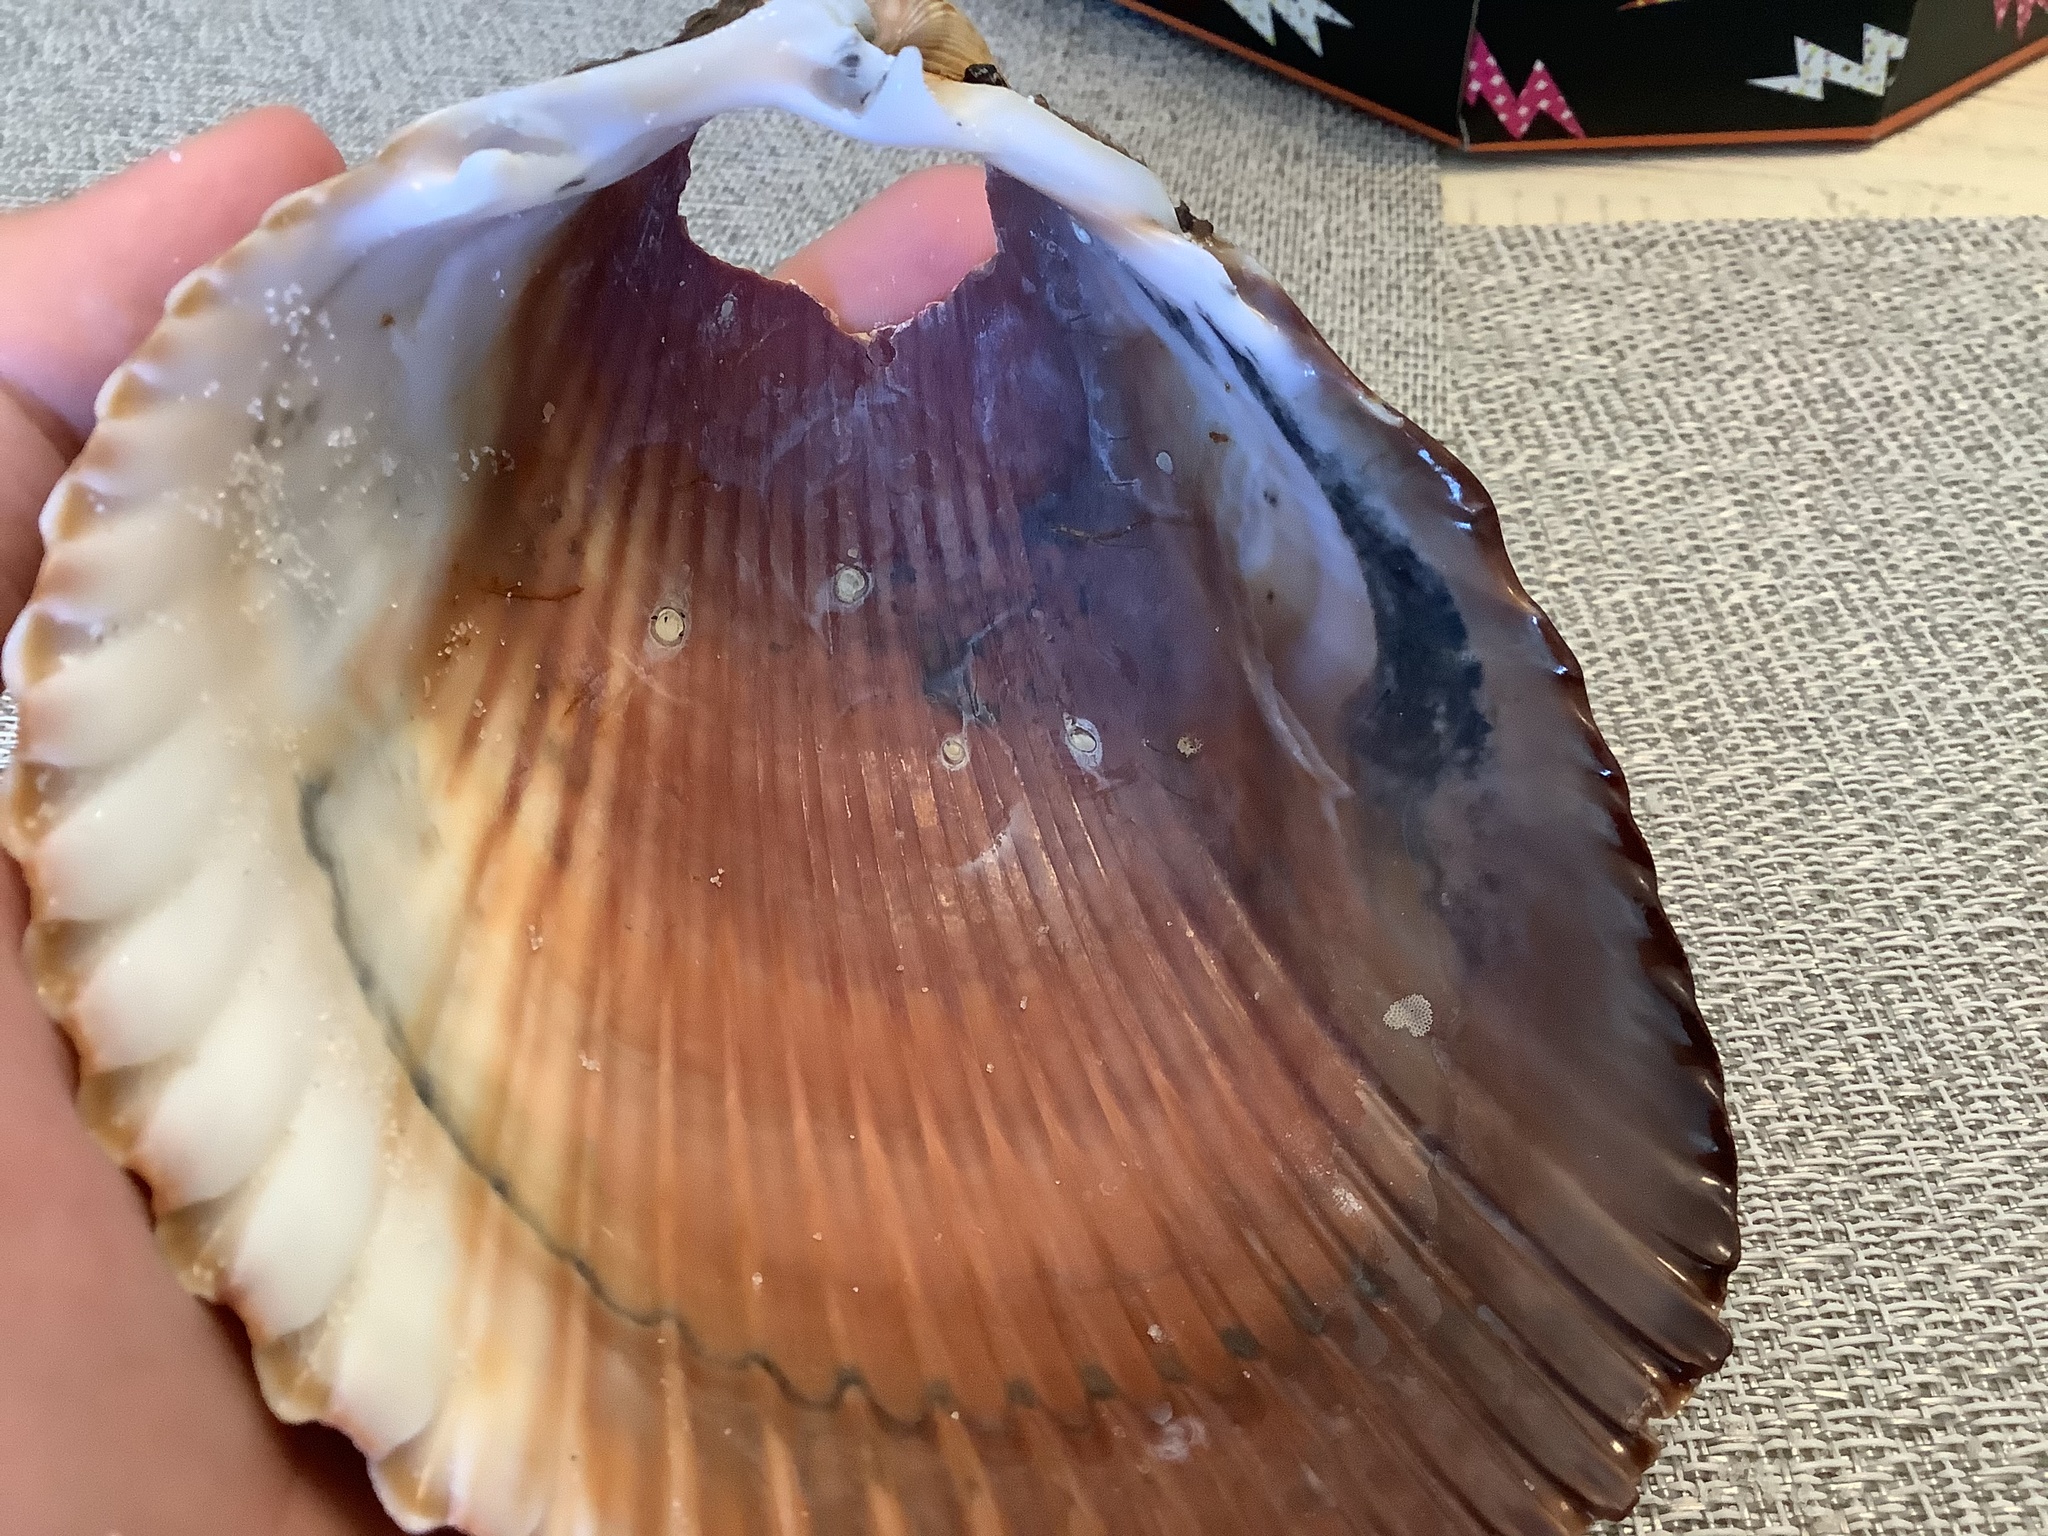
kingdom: Animalia
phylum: Mollusca
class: Bivalvia
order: Cardiida
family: Cardiidae
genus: Dinocardium
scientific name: Dinocardium robustum
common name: Atlantic giant cockle
